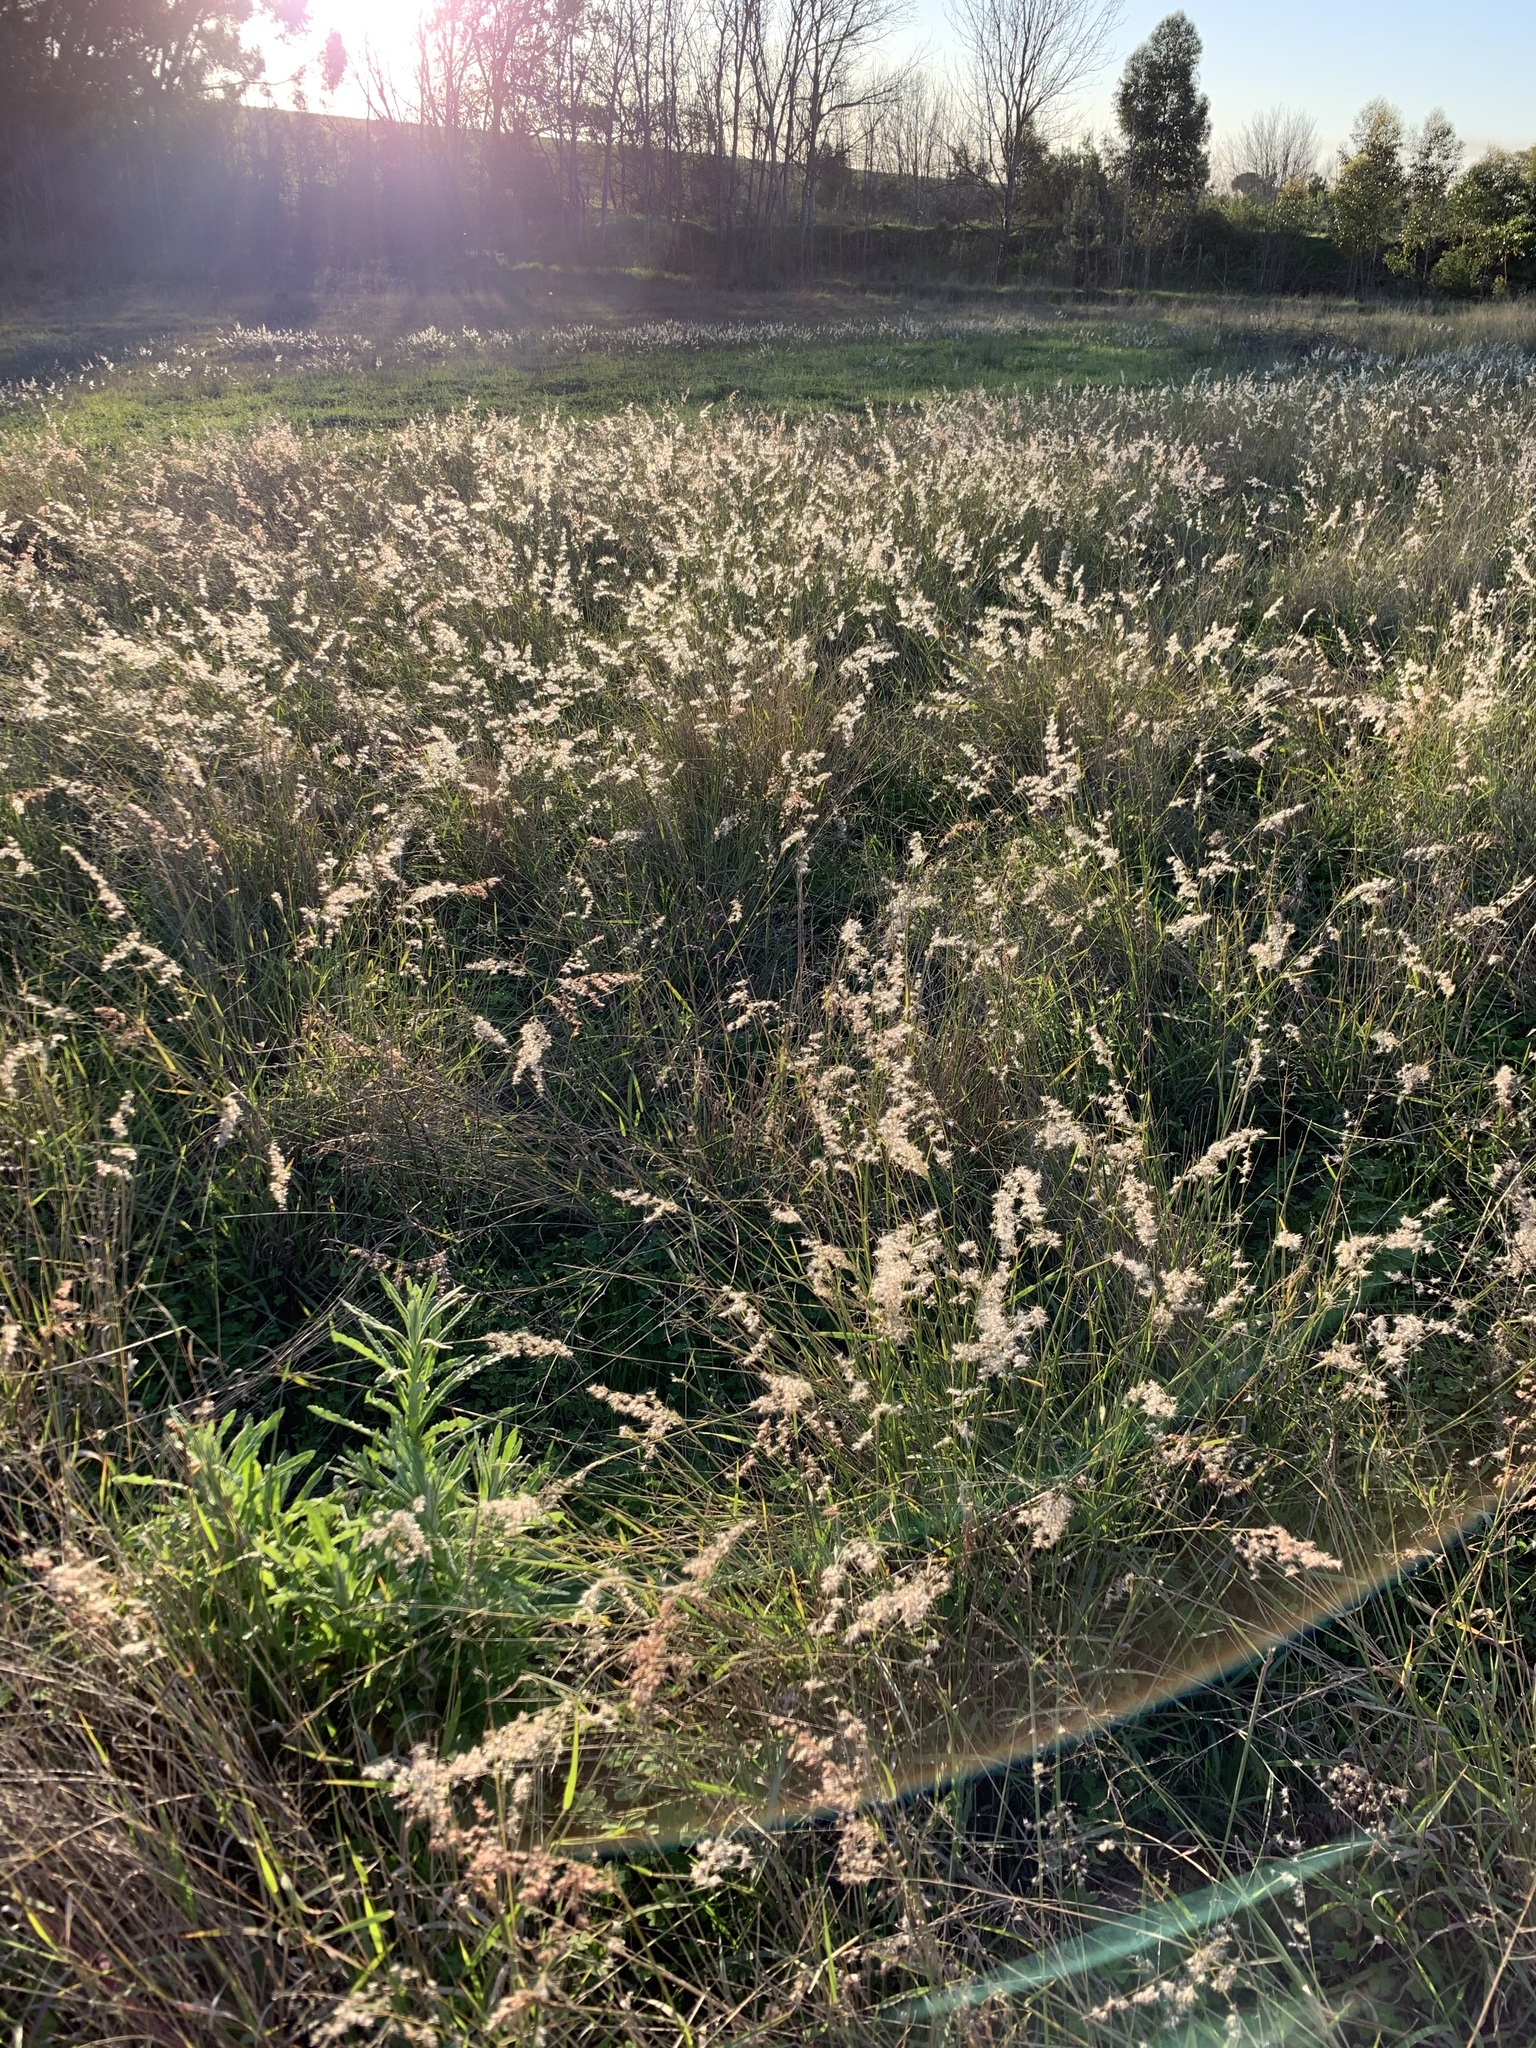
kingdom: Plantae
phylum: Tracheophyta
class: Liliopsida
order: Poales
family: Poaceae
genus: Melinis
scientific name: Melinis repens
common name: Rose natal grass
